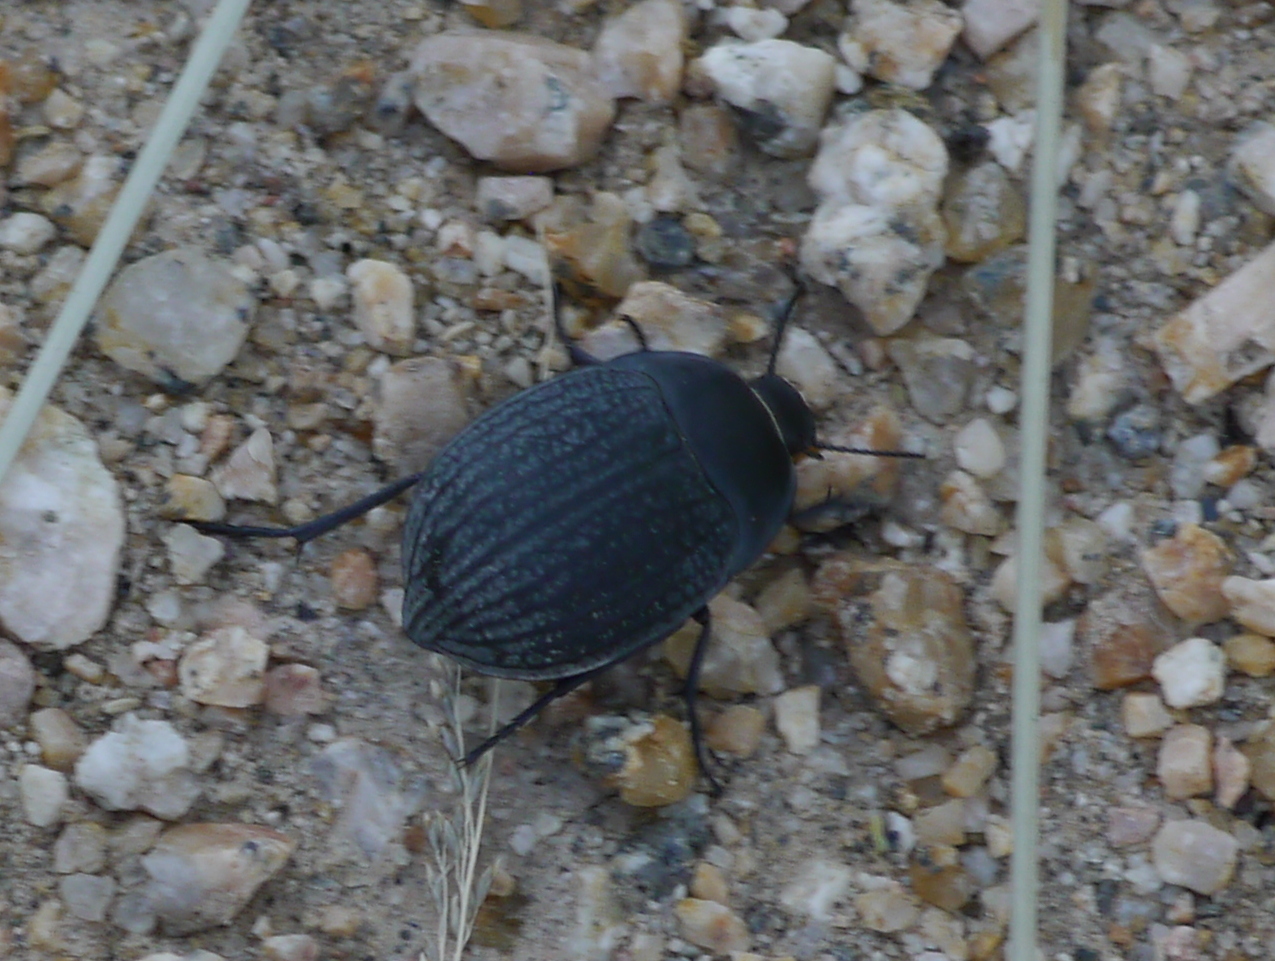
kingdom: Animalia
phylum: Arthropoda
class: Insecta
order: Coleoptera
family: Tenebrionidae
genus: Eusattus
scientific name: Eusattus reticulatus
